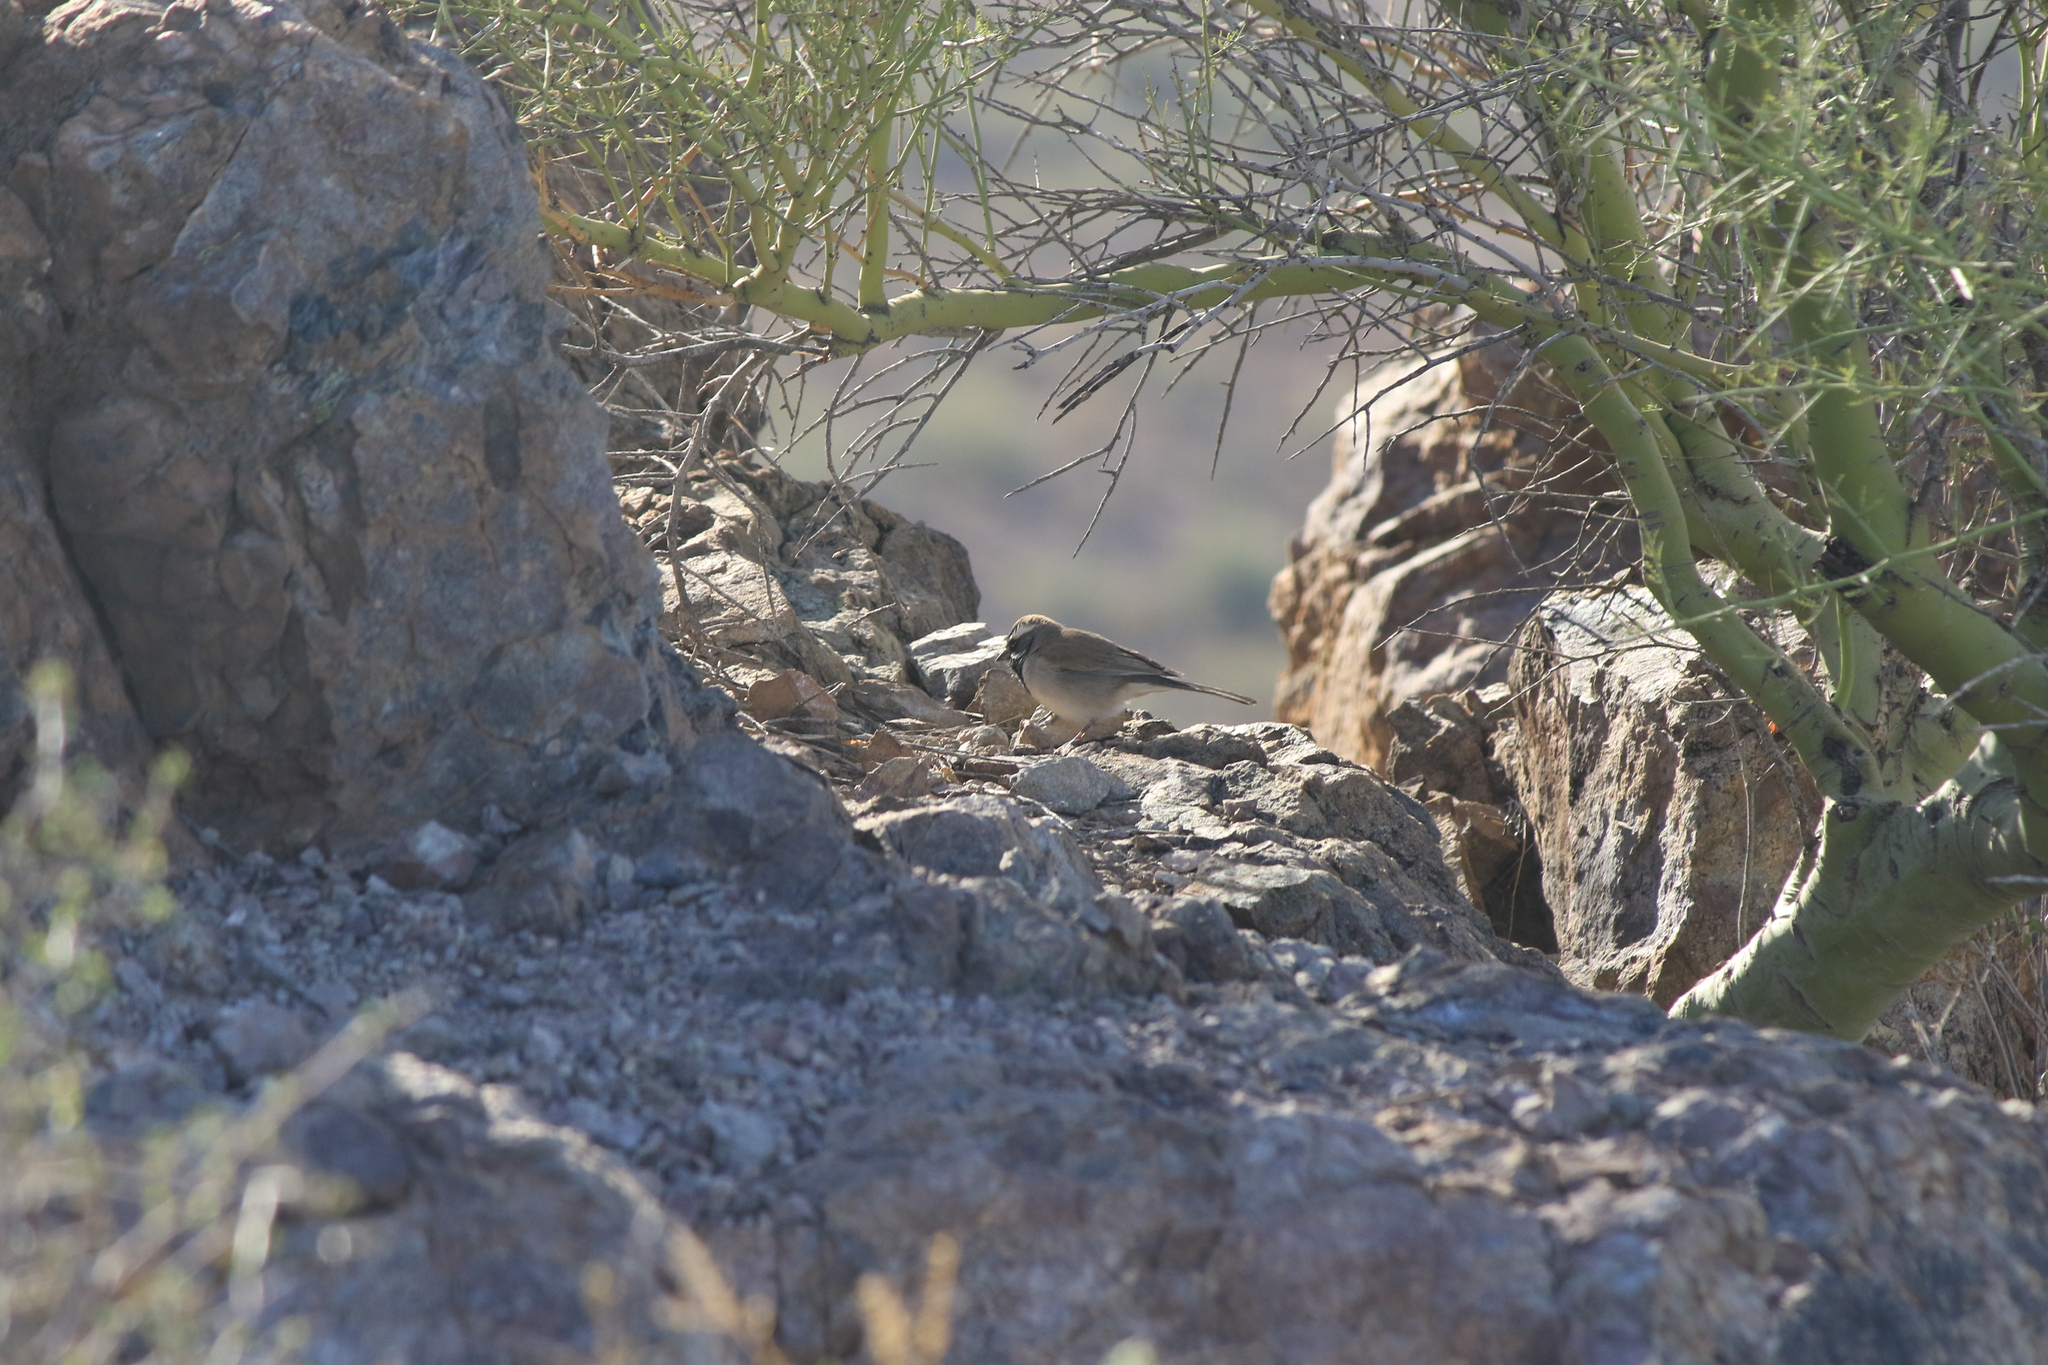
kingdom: Animalia
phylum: Chordata
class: Aves
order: Passeriformes
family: Passerellidae
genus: Amphispiza
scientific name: Amphispiza bilineata
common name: Black-throated sparrow
